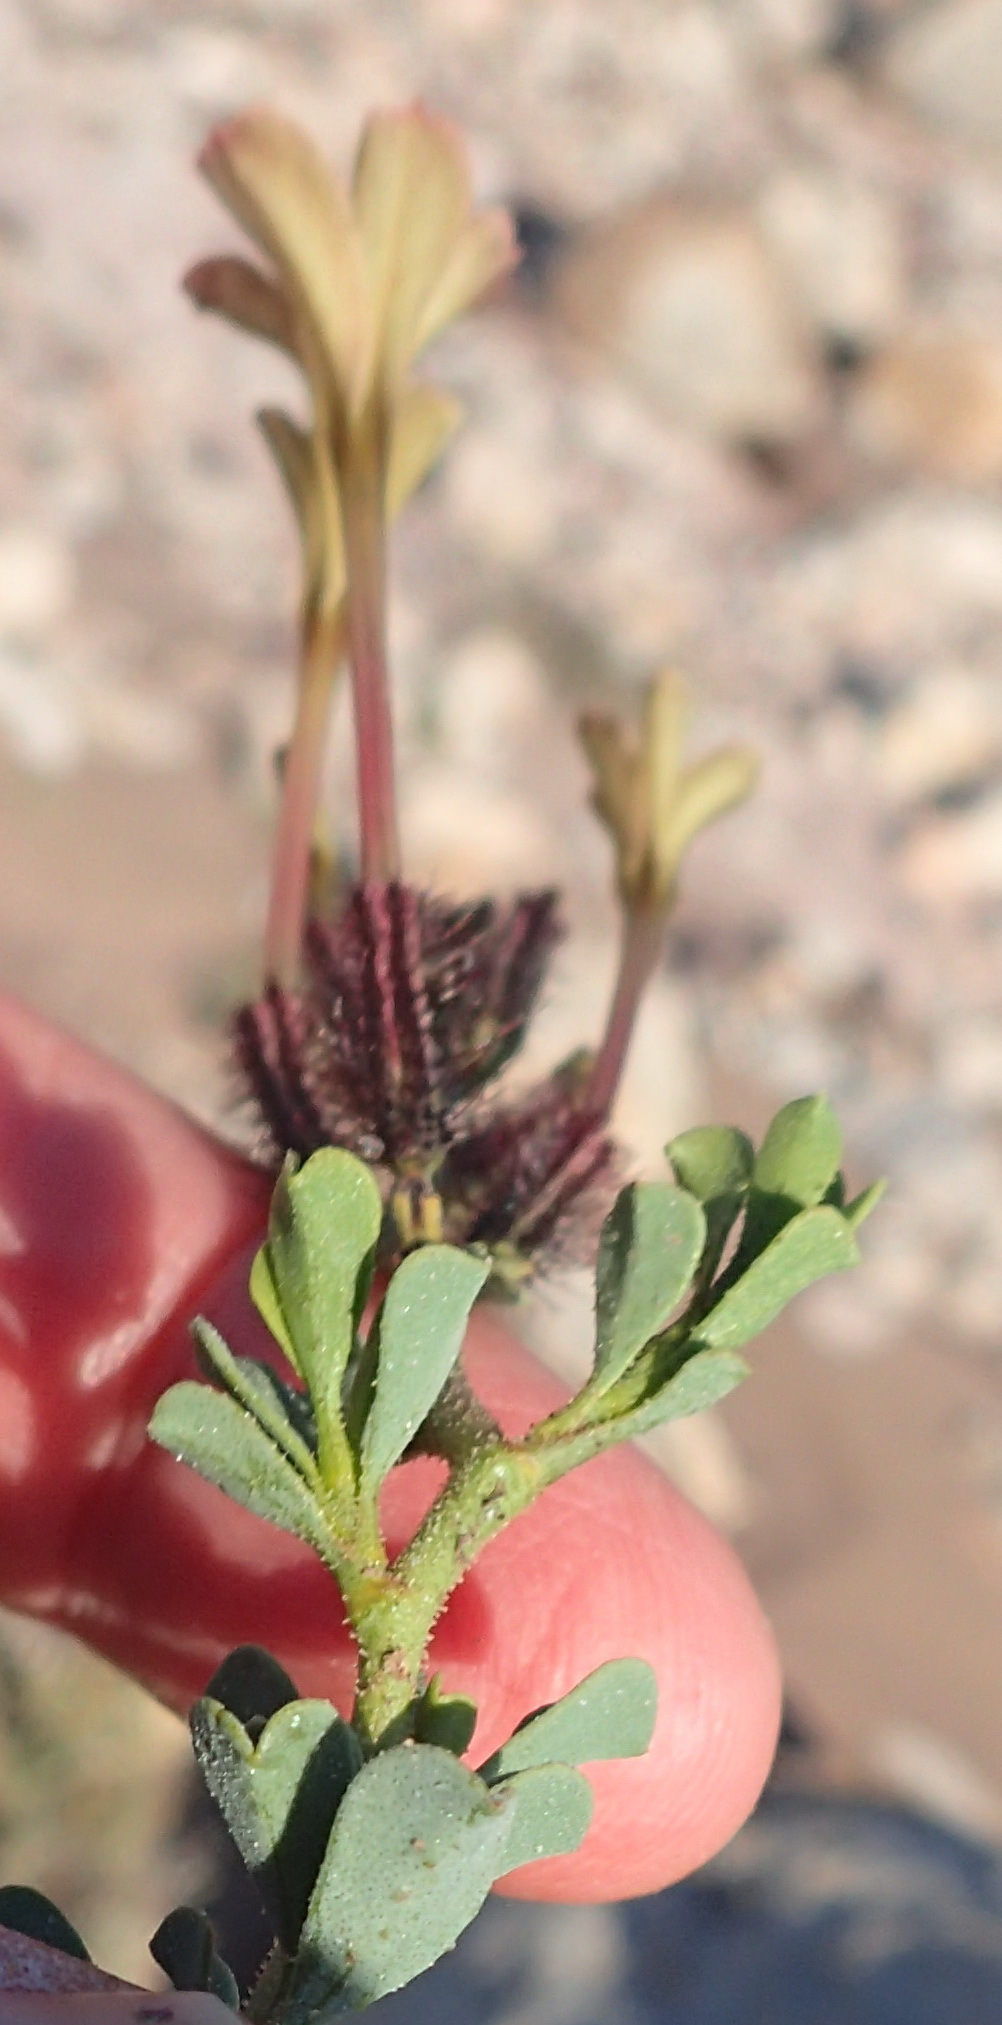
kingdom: Plantae
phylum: Tracheophyta
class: Magnoliopsida
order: Caryophyllales
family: Plumbaginaceae
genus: Plumbago
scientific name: Plumbago tristis
